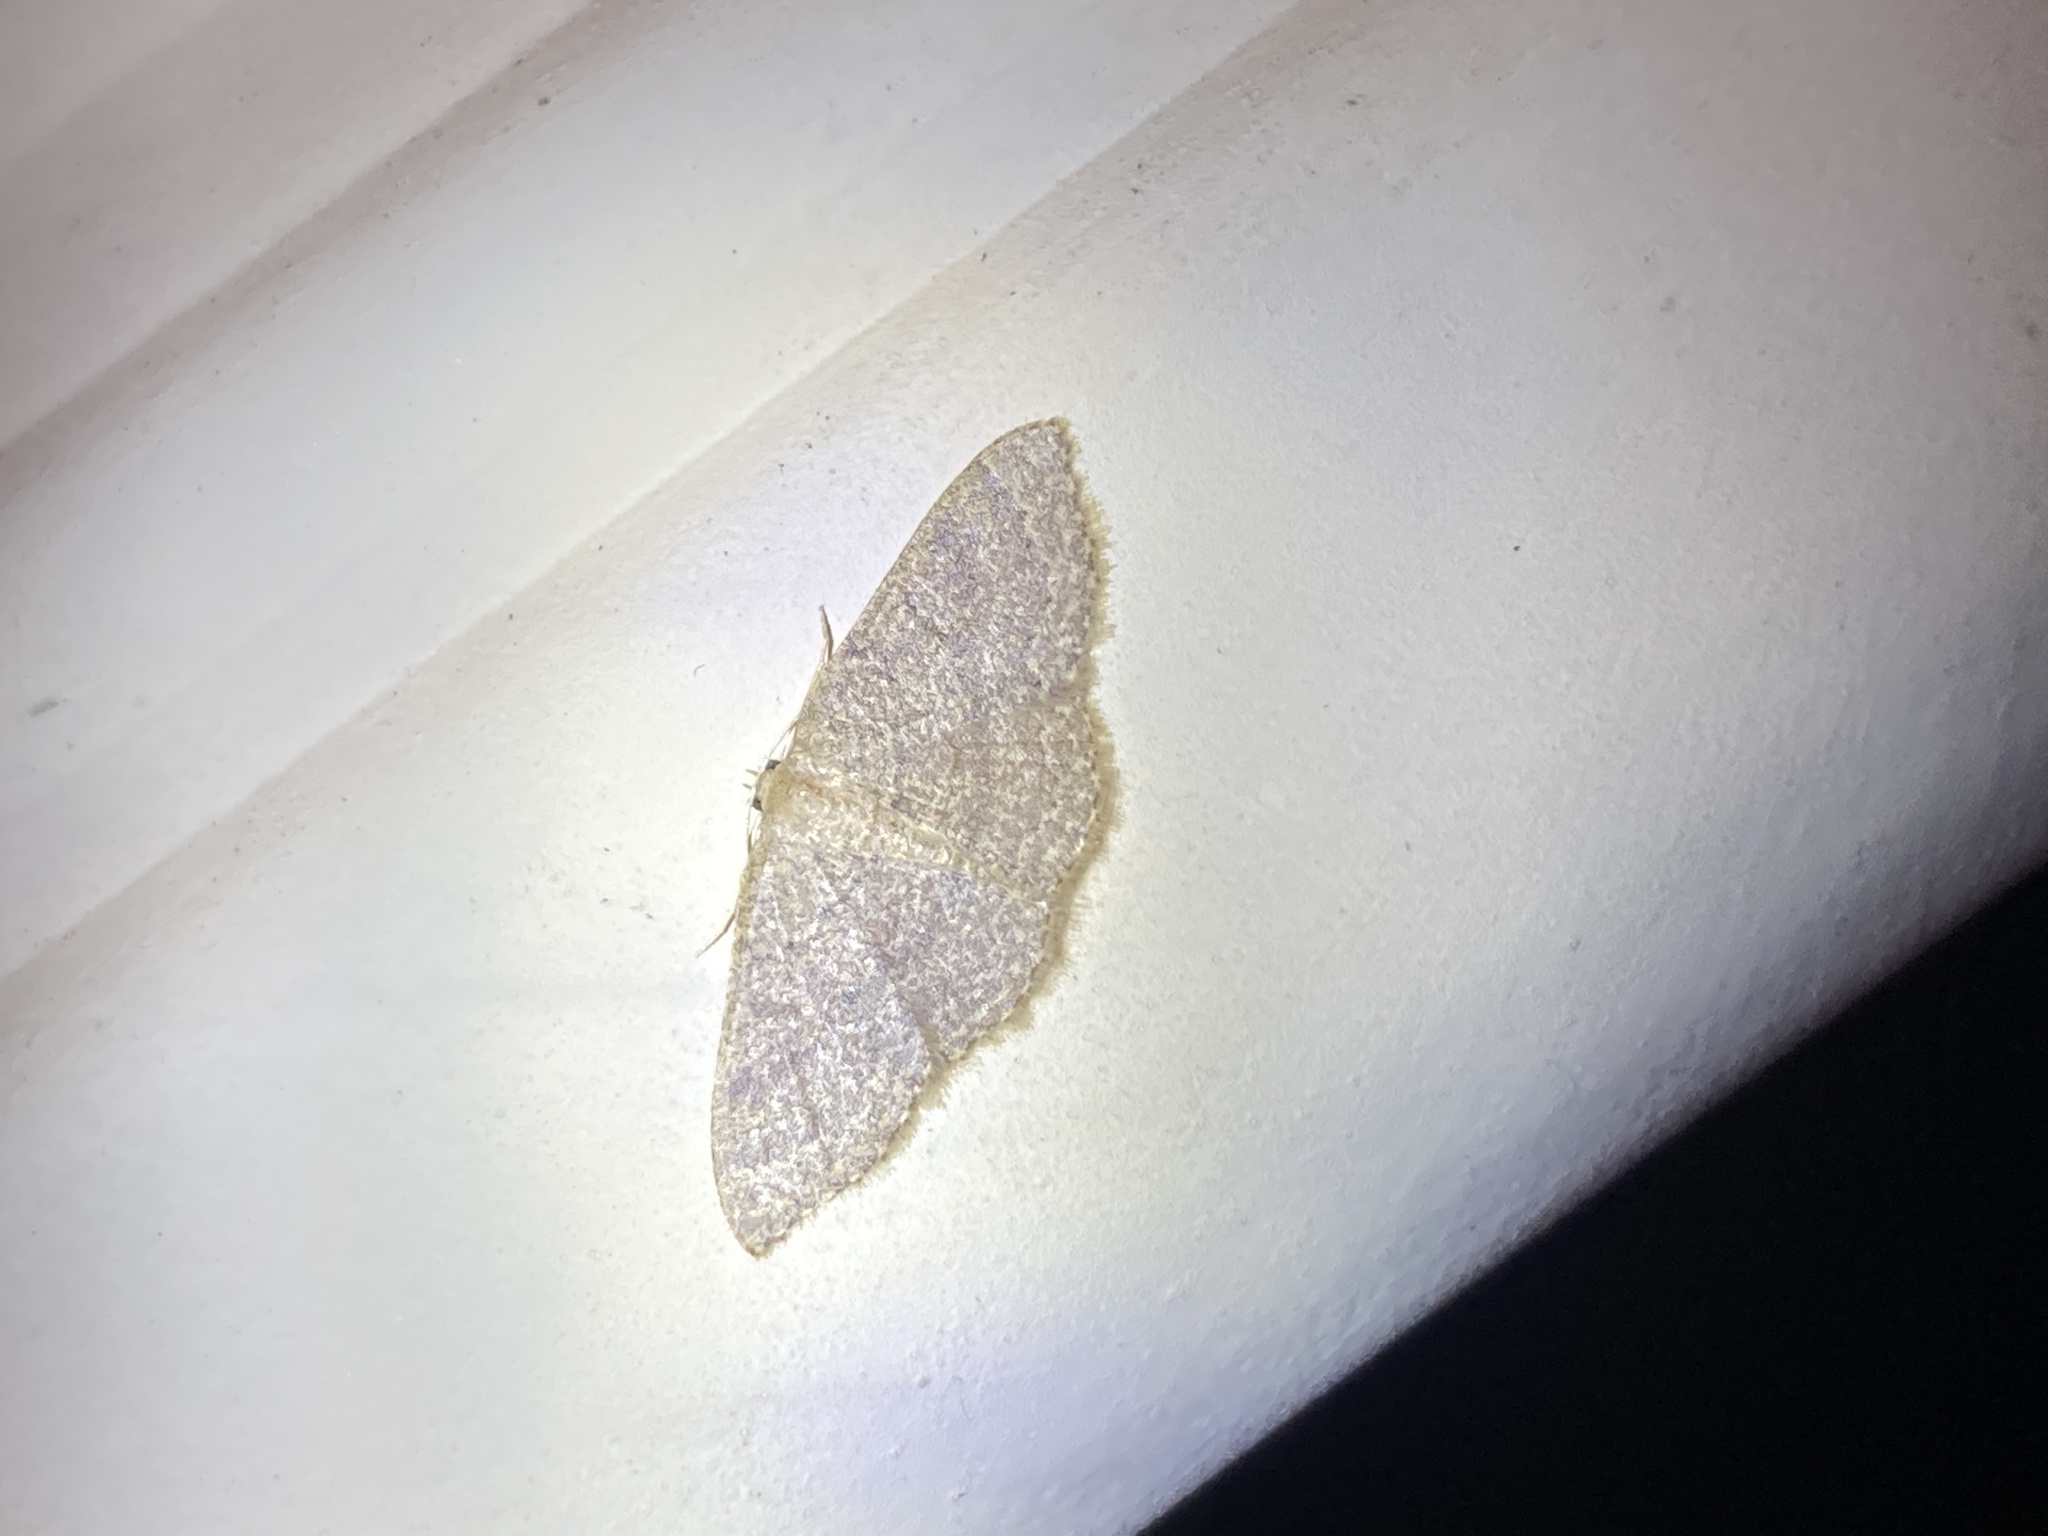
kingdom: Animalia
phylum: Arthropoda
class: Insecta
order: Lepidoptera
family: Geometridae
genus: Pleuroprucha
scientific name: Pleuroprucha insulsaria
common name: Common tan wave
